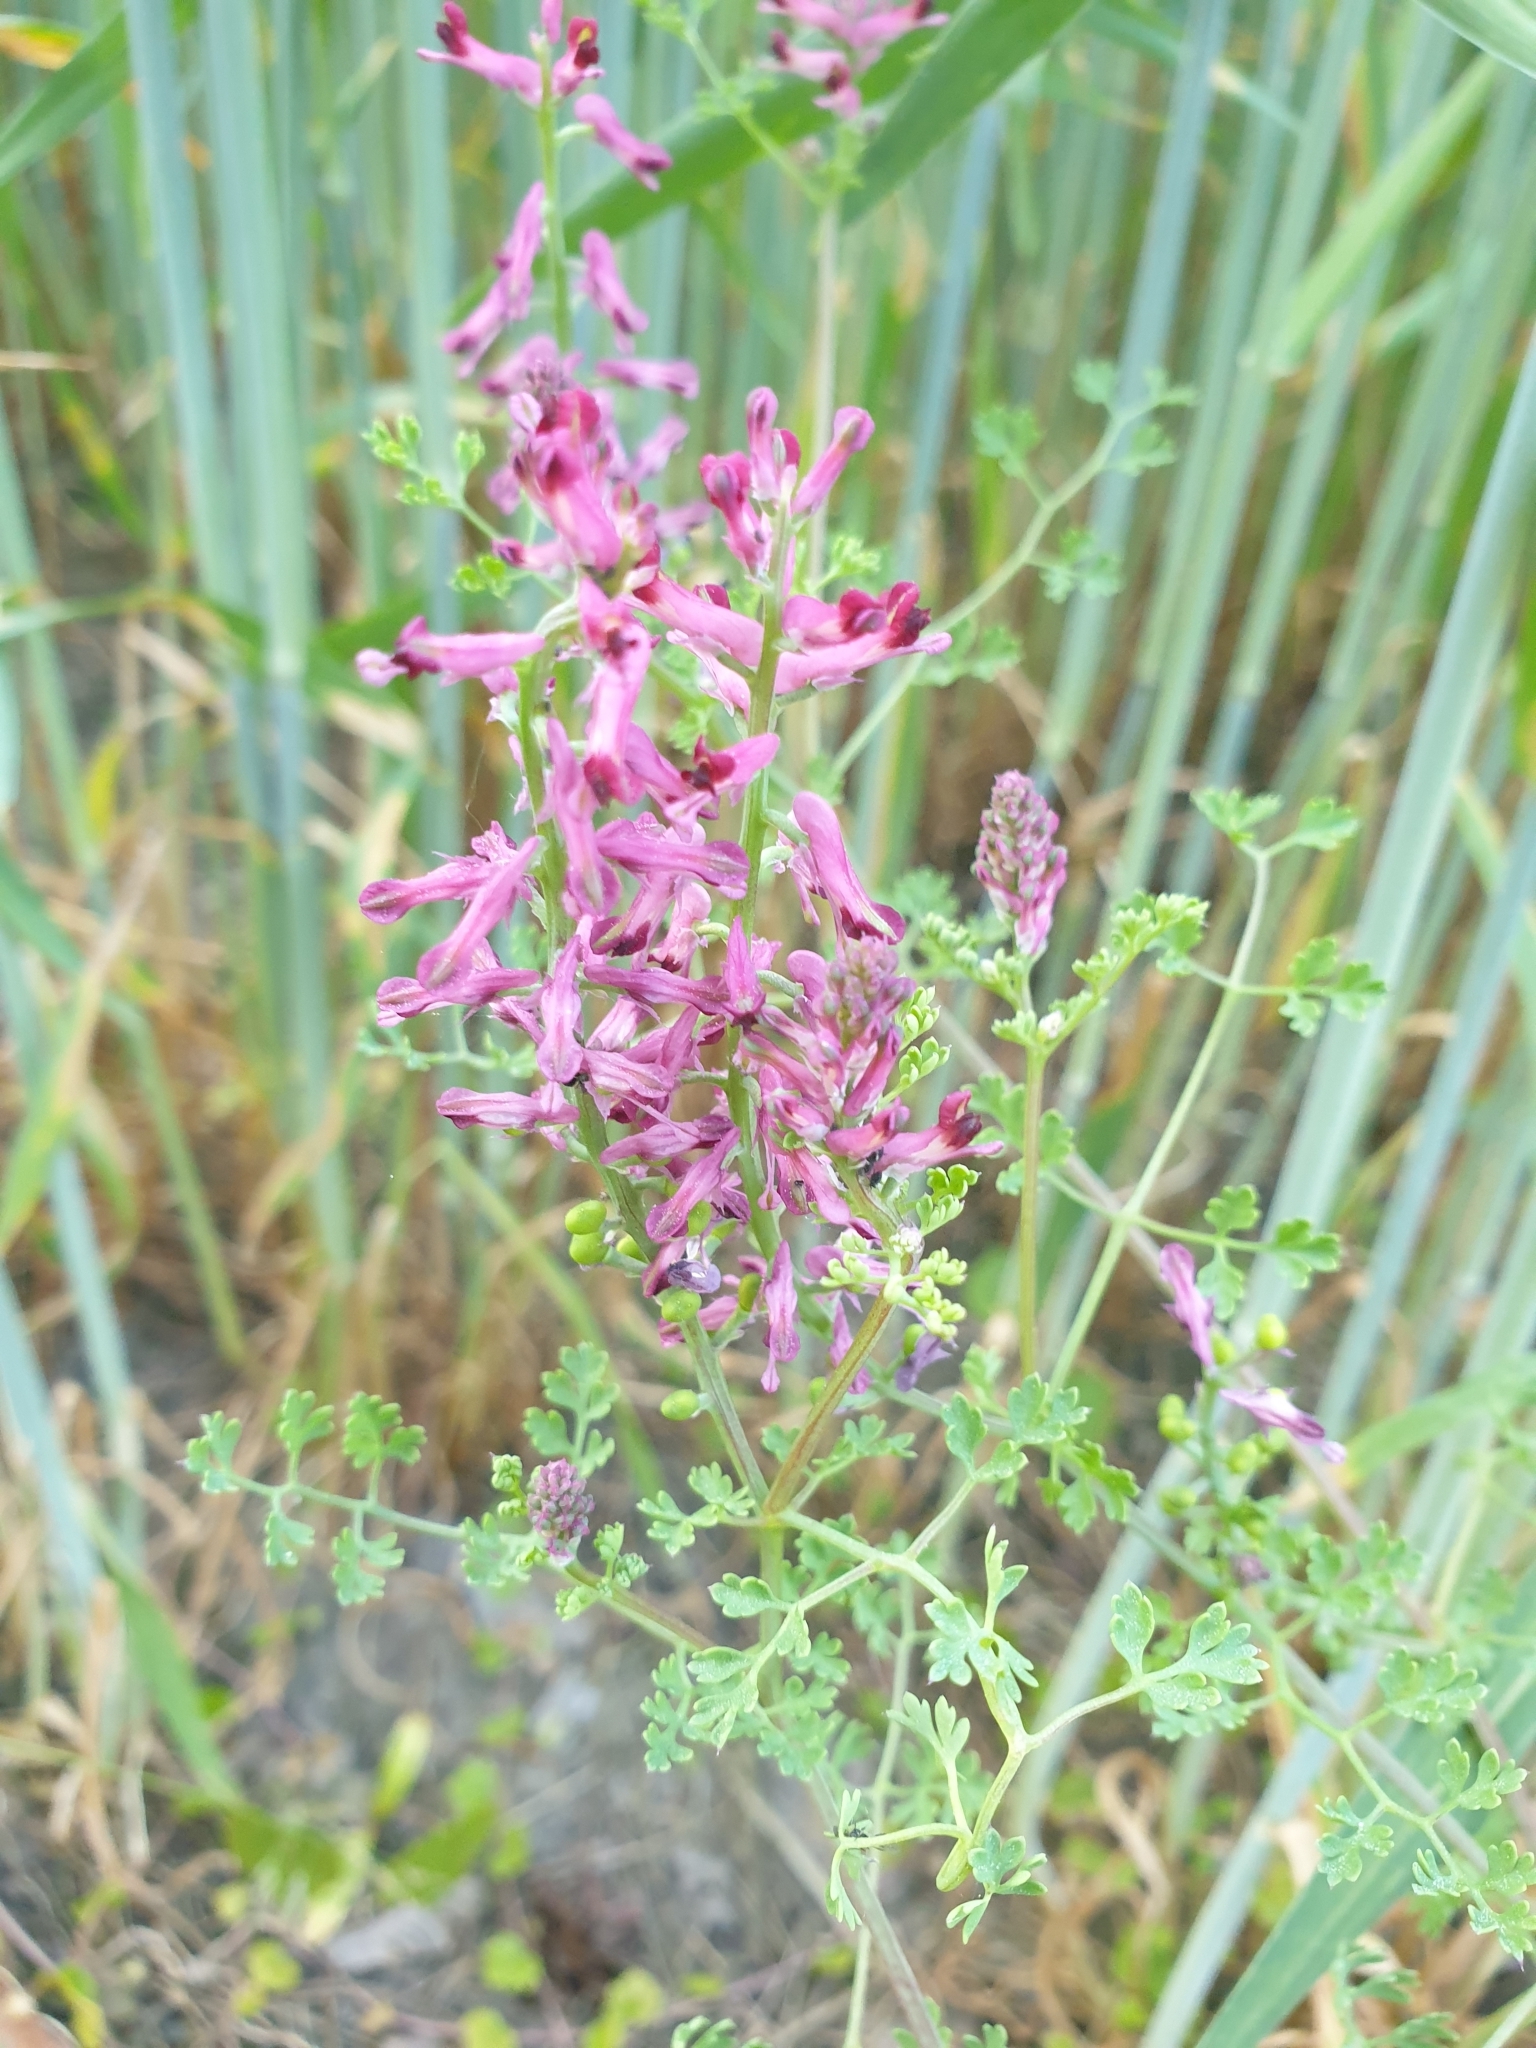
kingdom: Plantae
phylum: Tracheophyta
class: Magnoliopsida
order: Ranunculales
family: Papaveraceae
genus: Fumaria
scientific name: Fumaria officinalis
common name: Common fumitory
